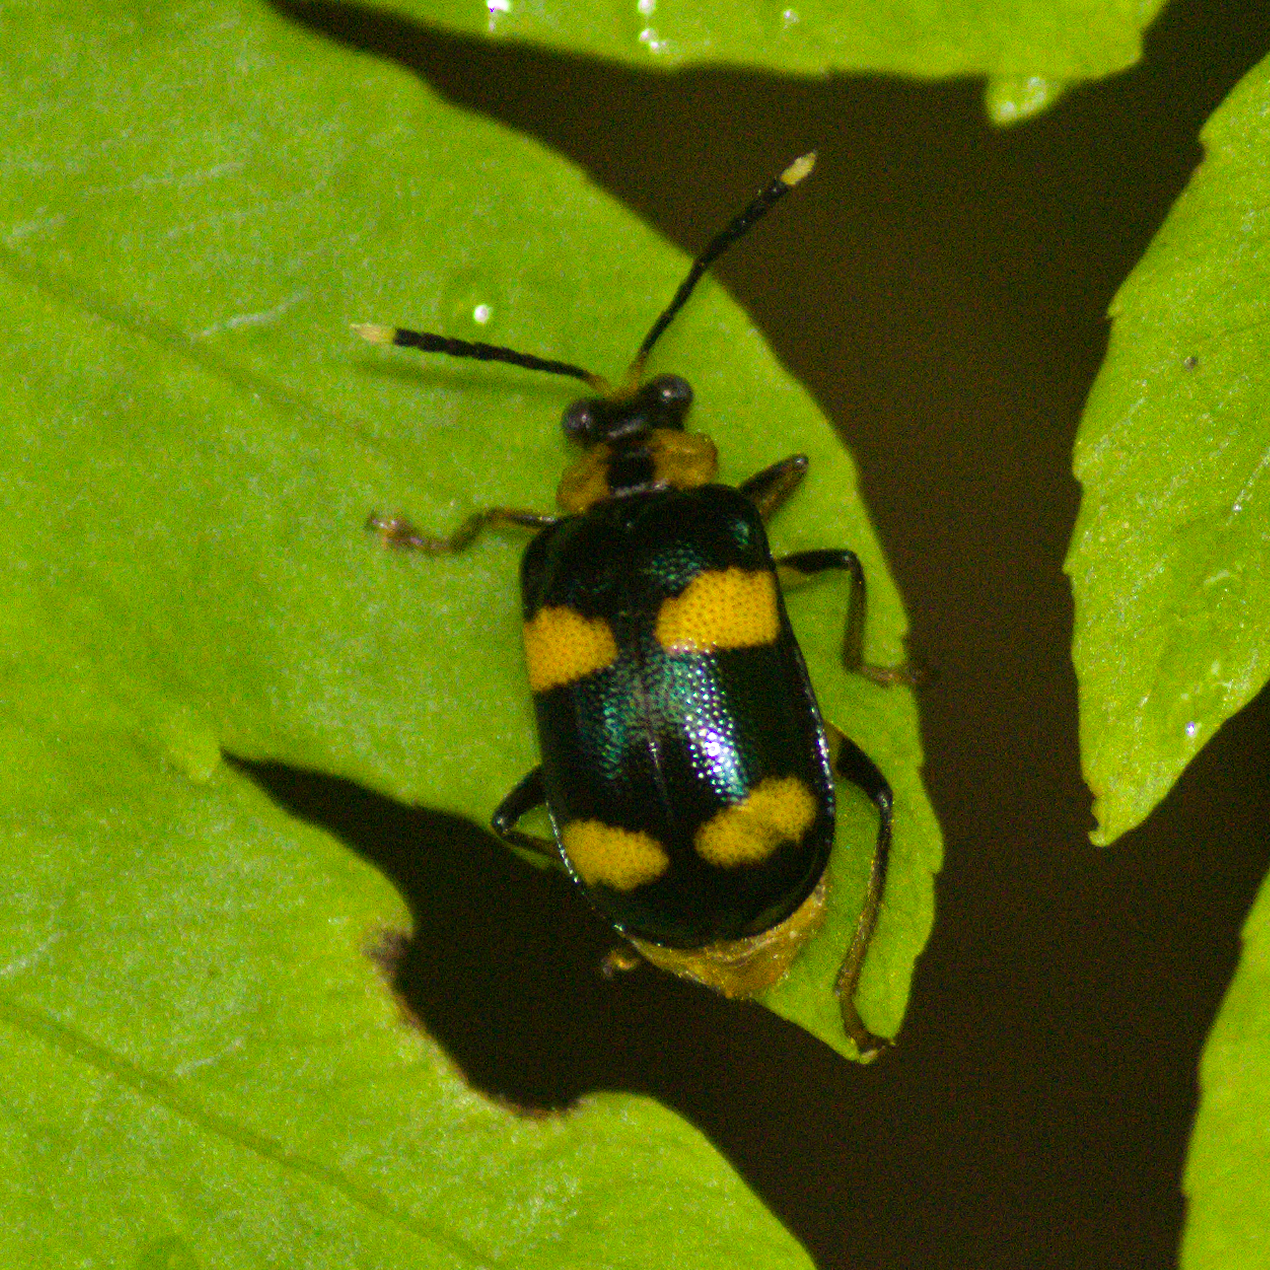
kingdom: Animalia
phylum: Arthropoda
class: Insecta
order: Coleoptera
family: Chrysomelidae
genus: Aplosonyx
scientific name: Aplosonyx
